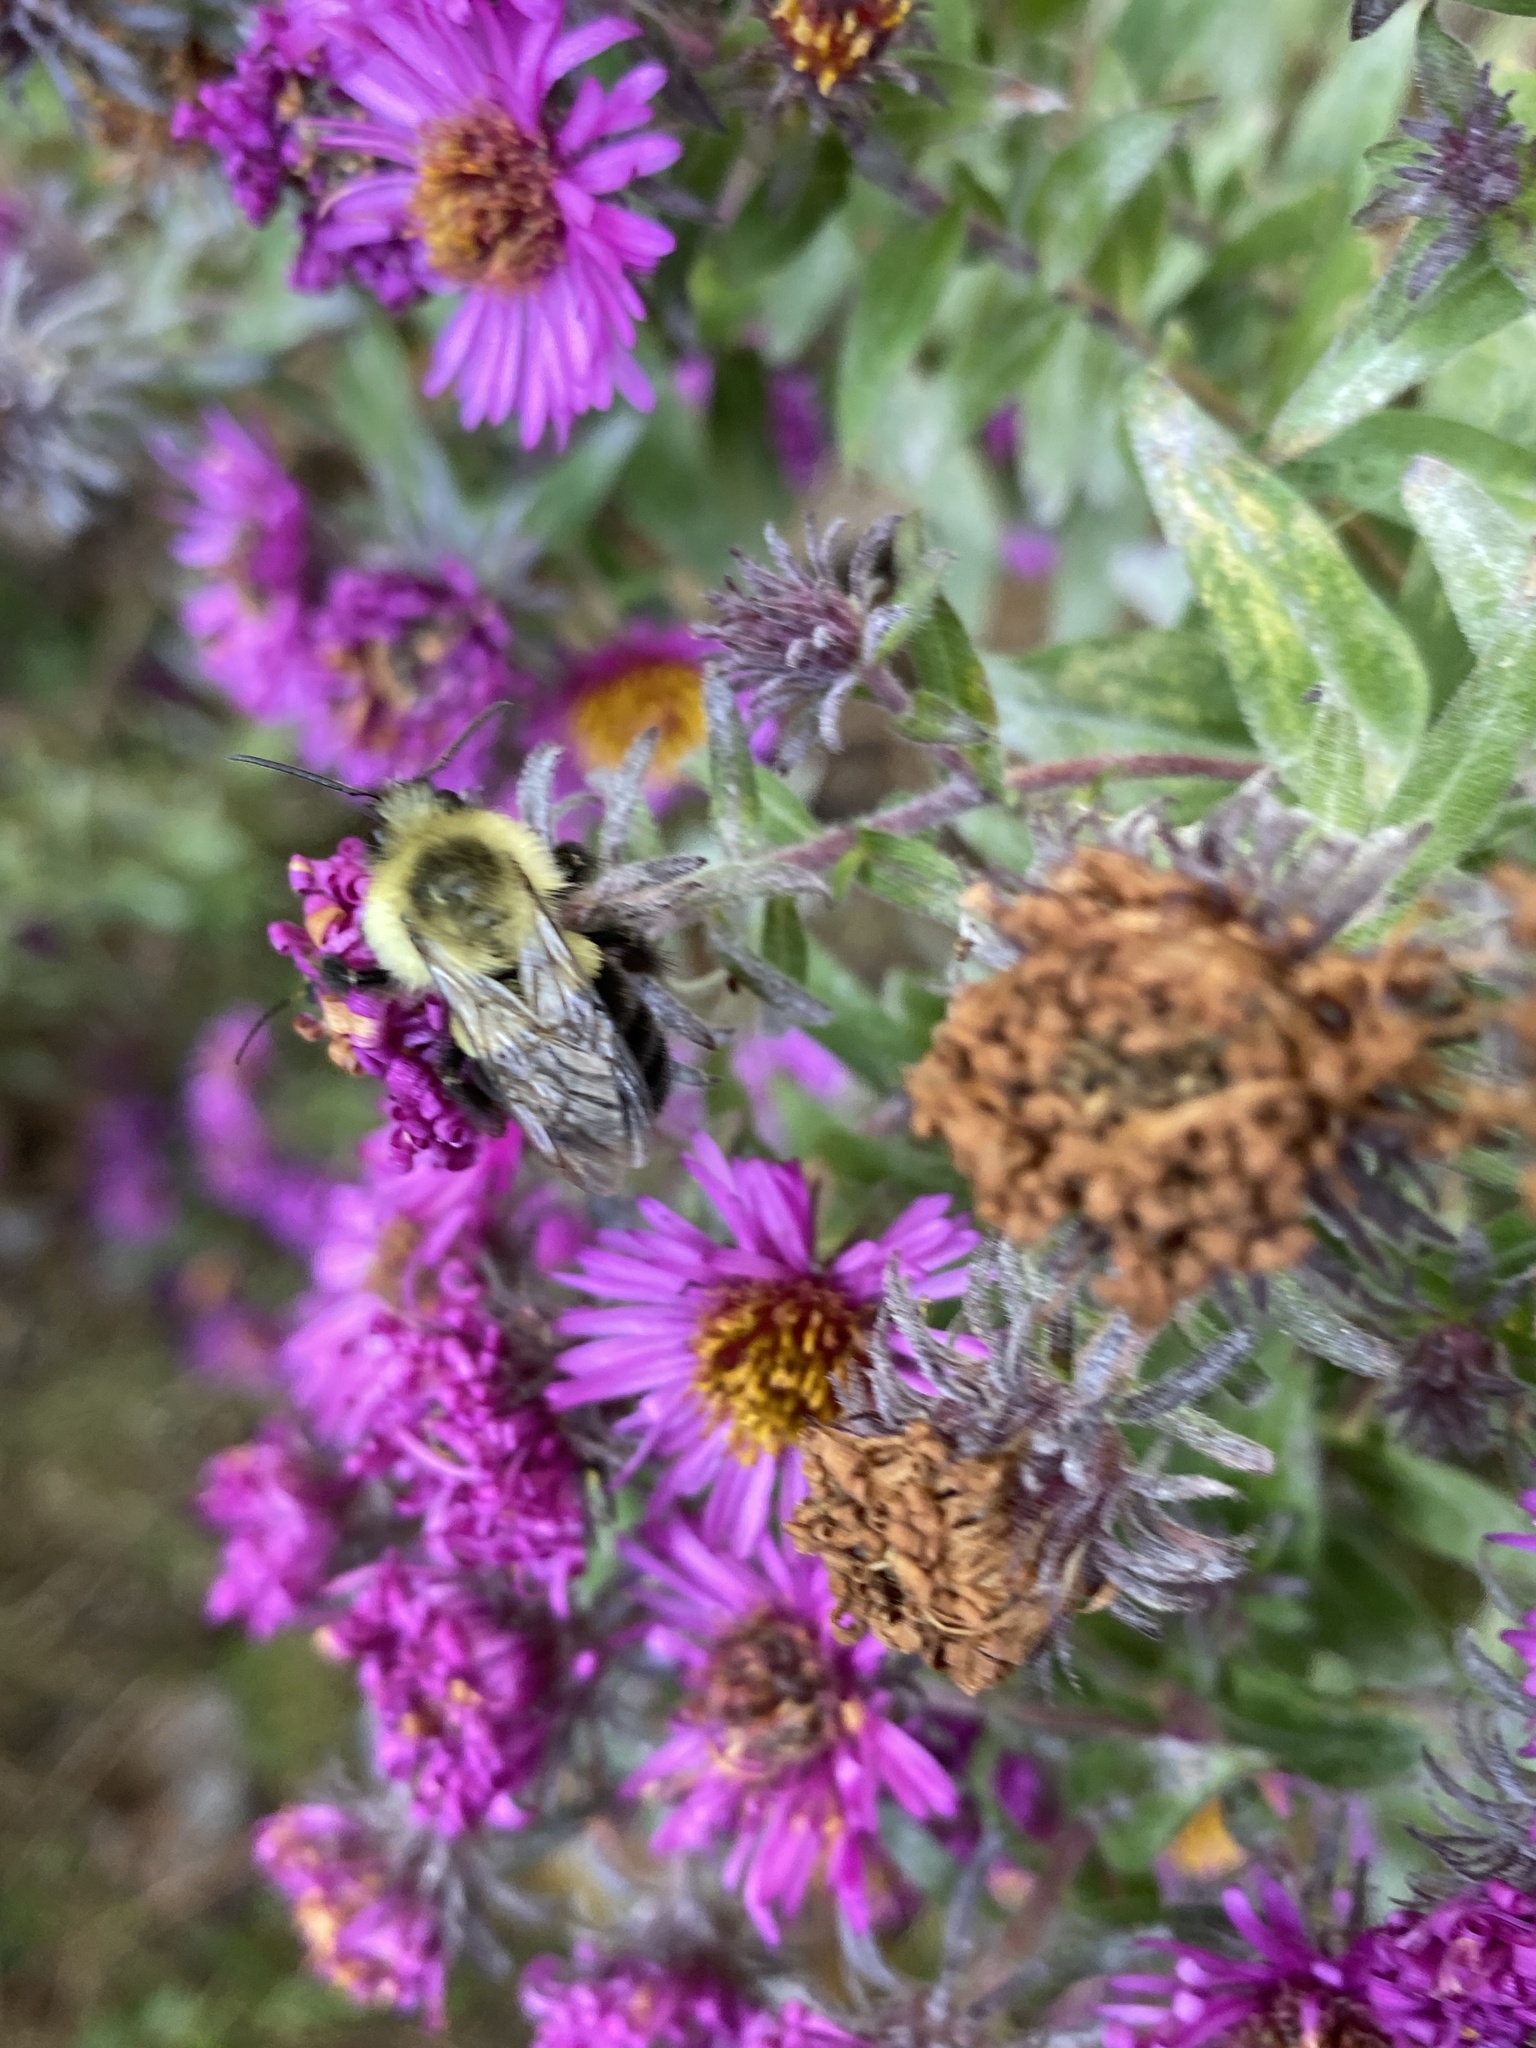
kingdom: Animalia
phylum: Arthropoda
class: Insecta
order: Hymenoptera
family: Apidae
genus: Bombus
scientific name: Bombus impatiens
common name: Common eastern bumble bee
